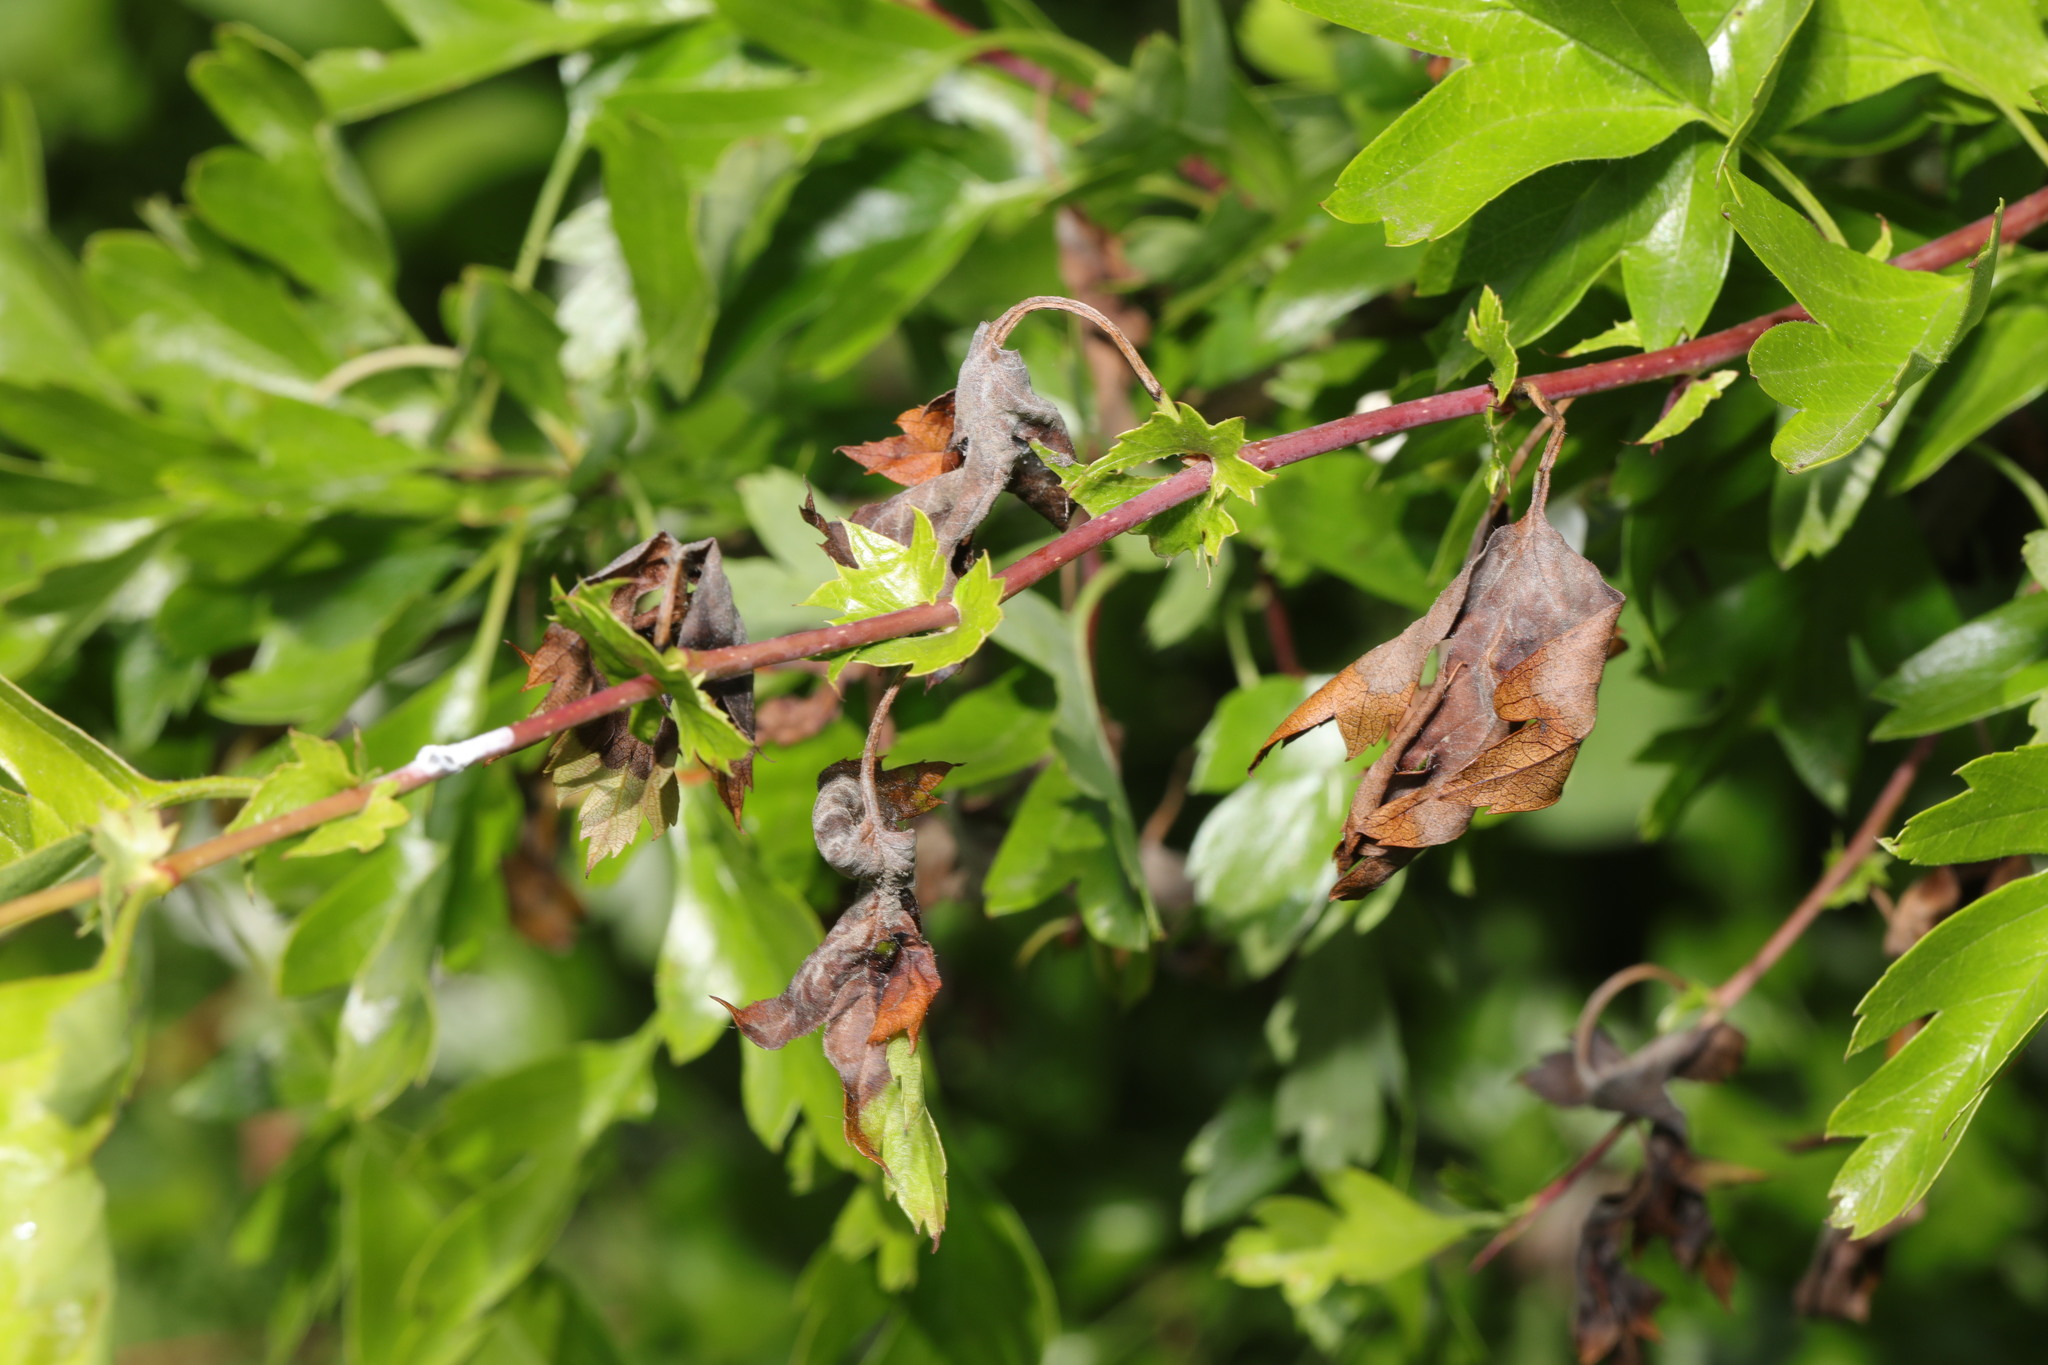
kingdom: Fungi
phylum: Ascomycota
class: Leotiomycetes
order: Helotiales
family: Sclerotiniaceae
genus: Monilinia
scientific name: Monilinia johnsonii
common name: Haw goblet
